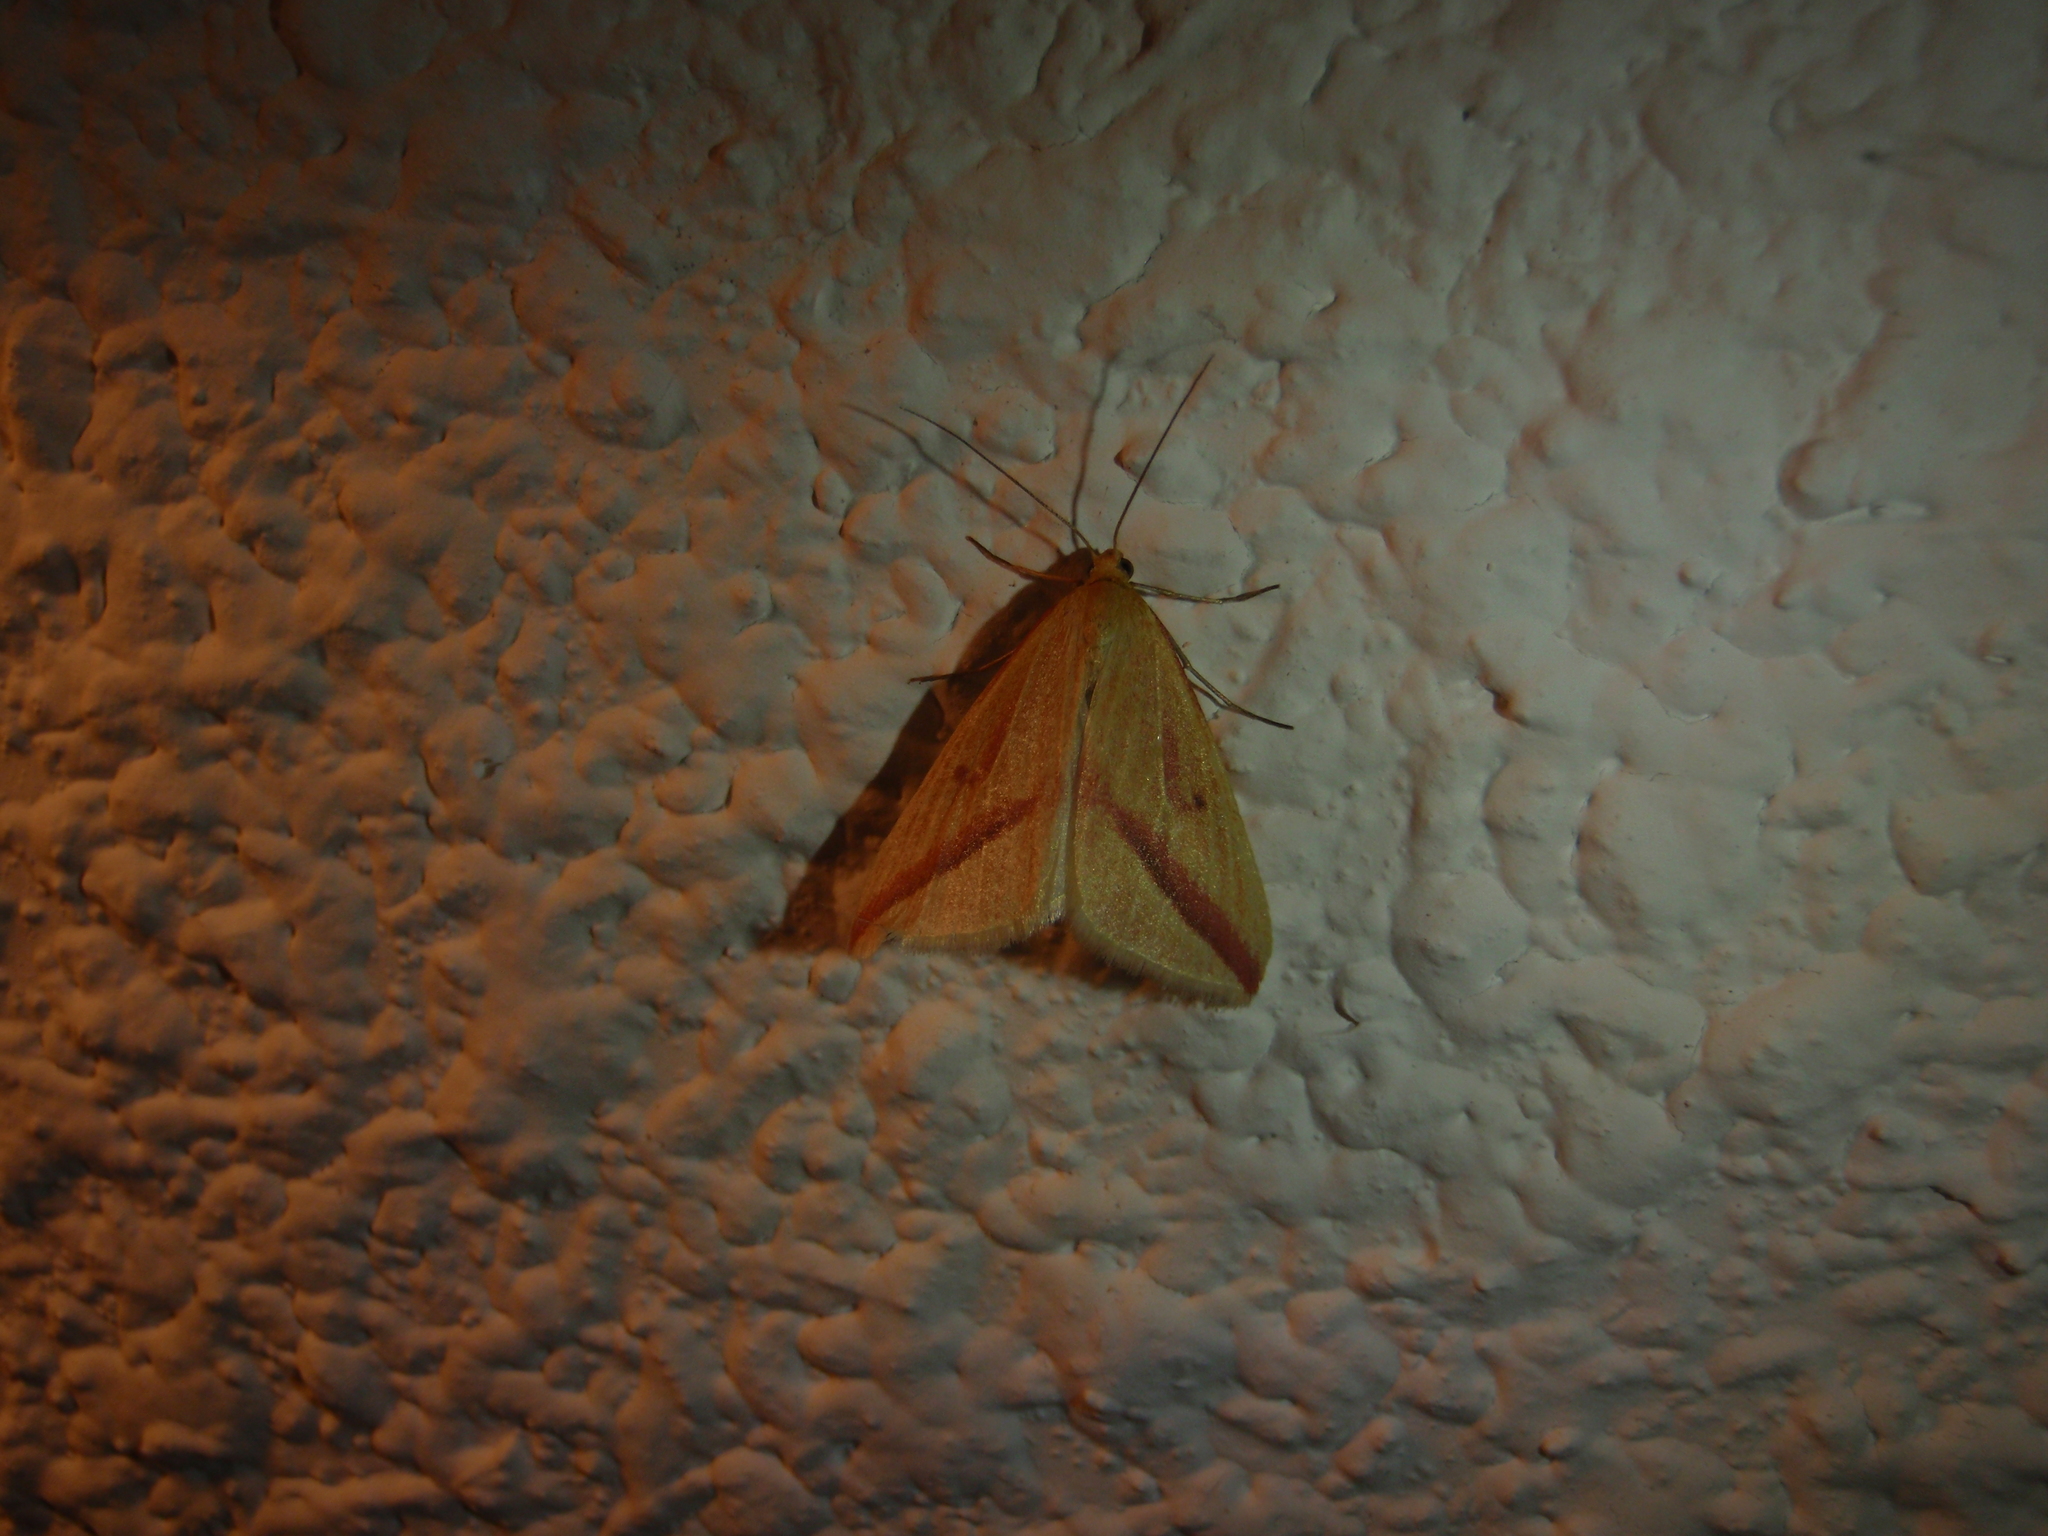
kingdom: Animalia
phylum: Arthropoda
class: Insecta
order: Lepidoptera
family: Geometridae
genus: Rhodometra
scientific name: Rhodometra sacraria
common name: Vestal
